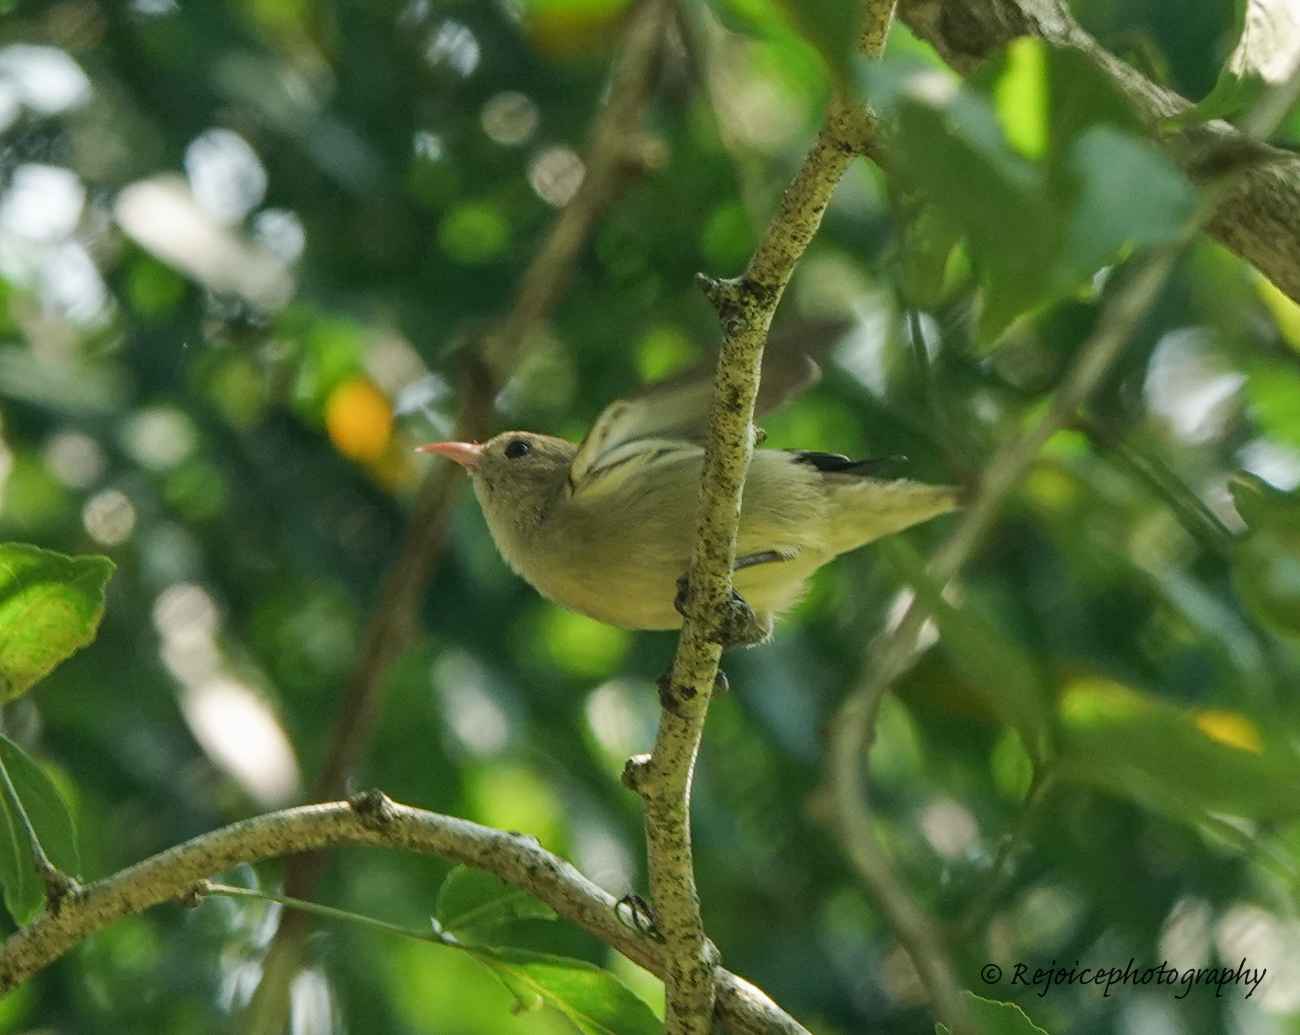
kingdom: Animalia
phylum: Chordata
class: Aves
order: Passeriformes
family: Dicaeidae
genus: Dicaeum
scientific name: Dicaeum erythrorhynchos
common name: Pale-billed flowerpecker
